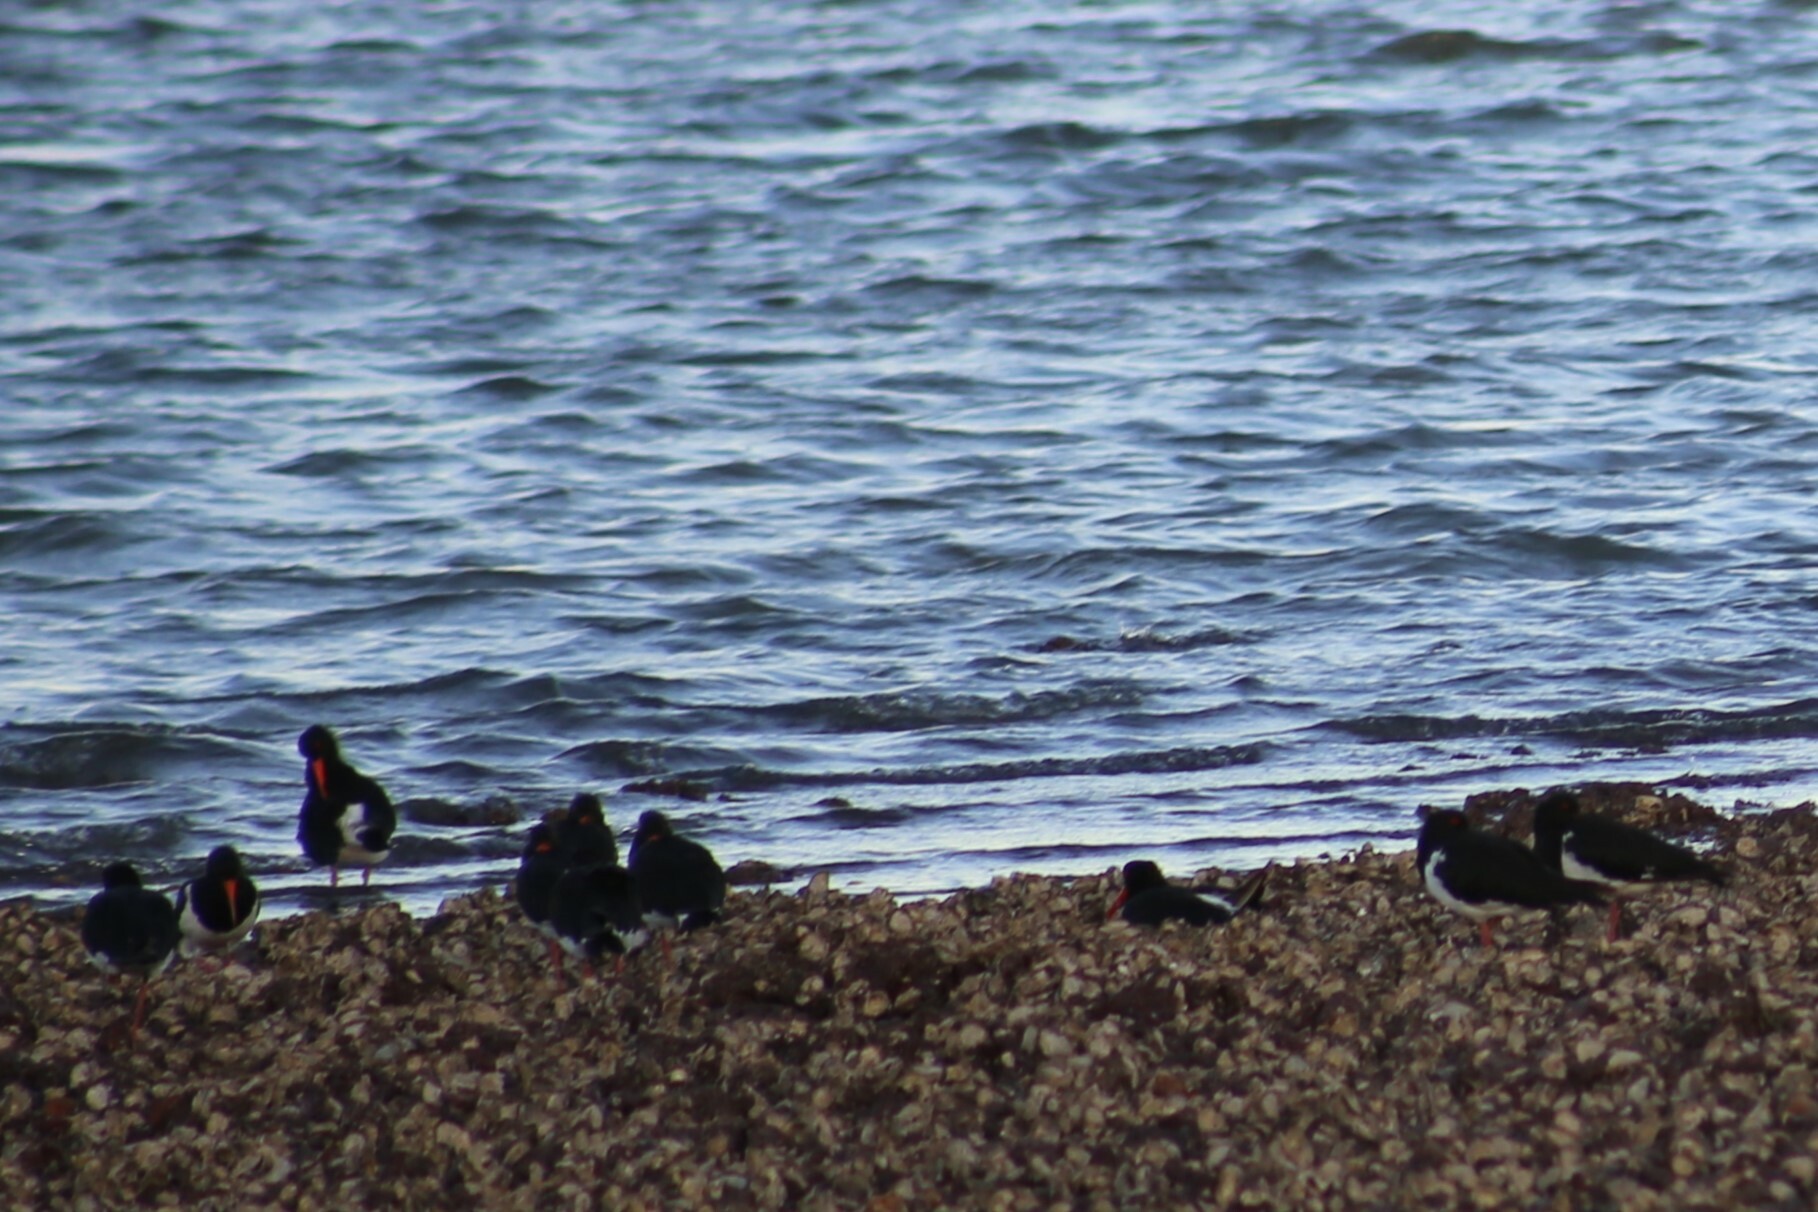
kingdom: Animalia
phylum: Chordata
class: Aves
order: Charadriiformes
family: Haematopodidae
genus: Haematopus
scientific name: Haematopus longirostris
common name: Pied oystercatcher
